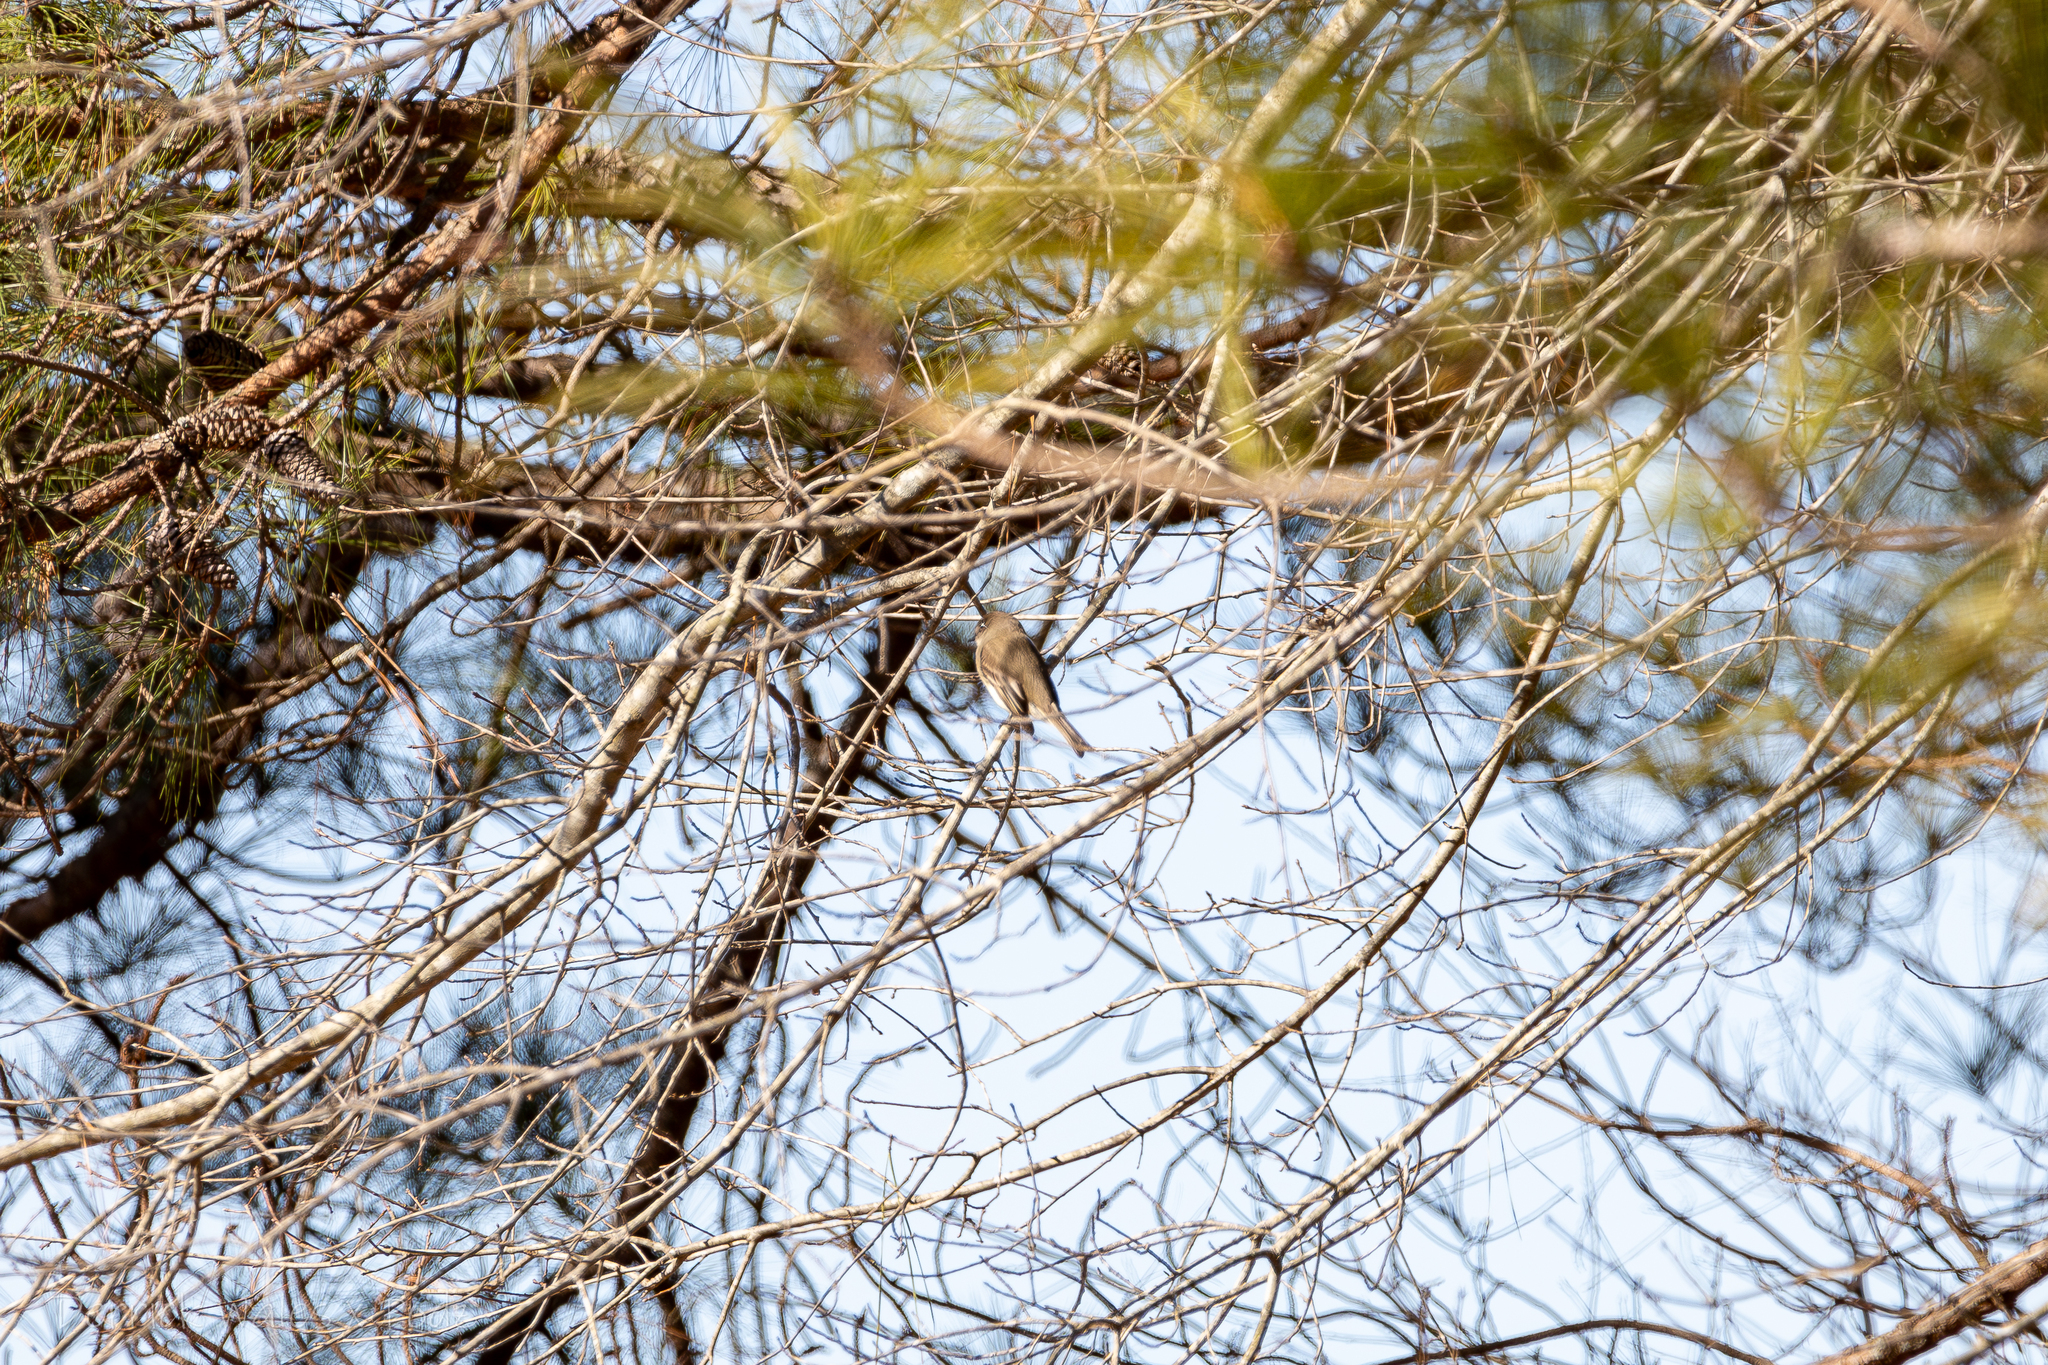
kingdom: Animalia
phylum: Chordata
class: Aves
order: Passeriformes
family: Tyrannidae
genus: Sayornis
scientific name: Sayornis phoebe
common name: Eastern phoebe
